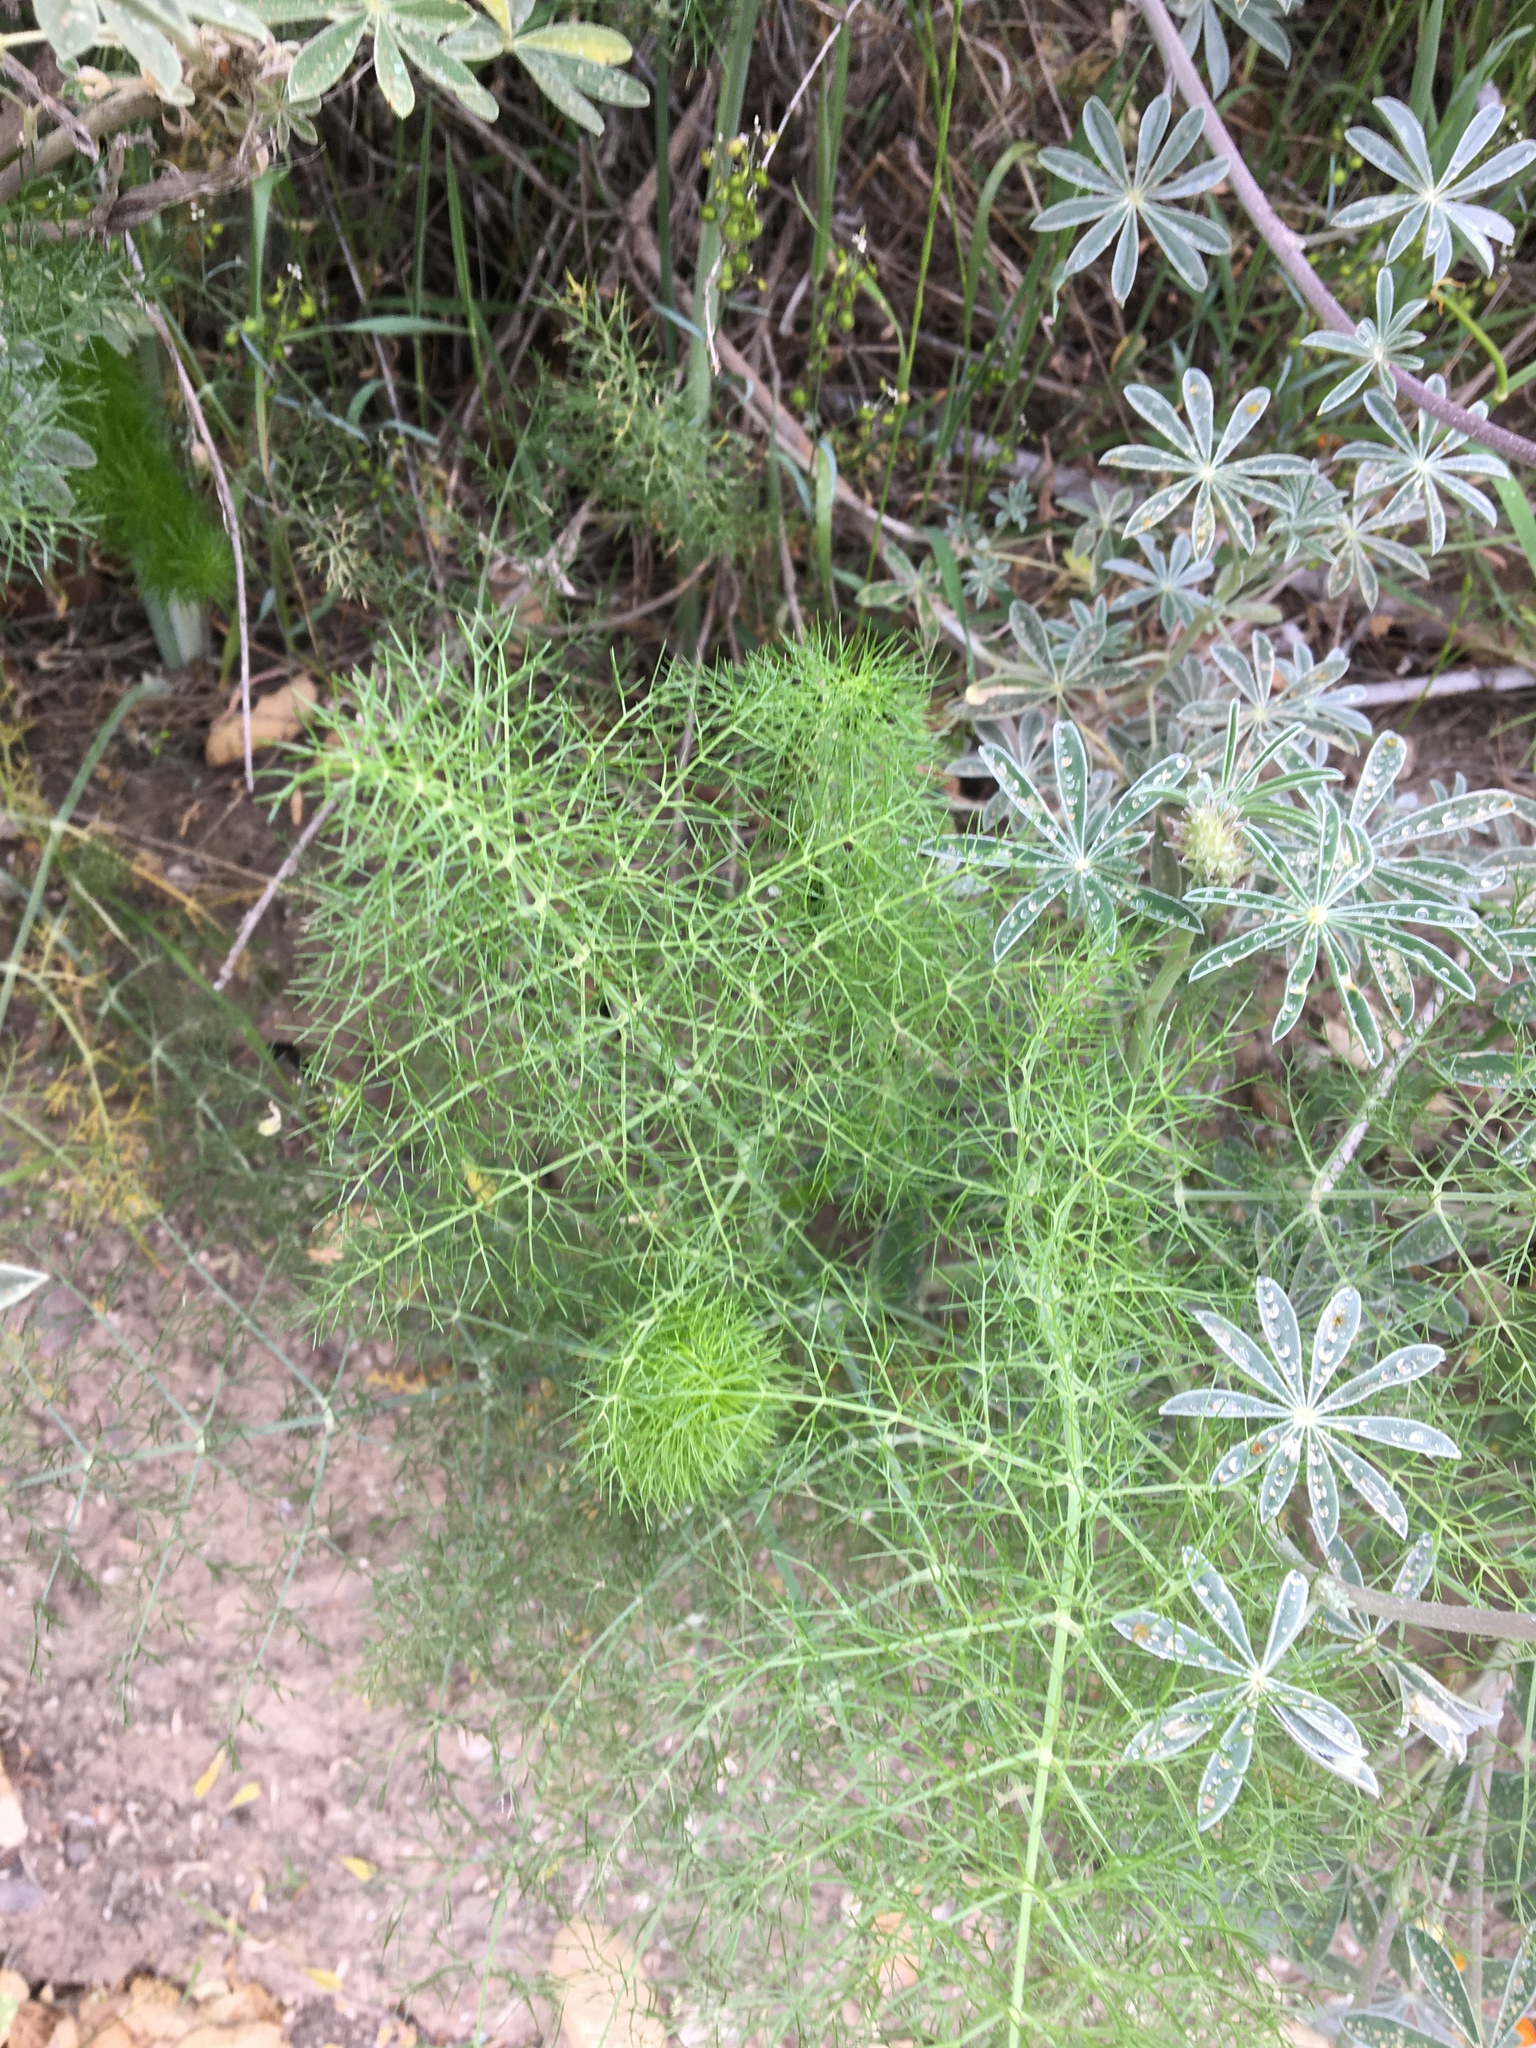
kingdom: Plantae
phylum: Tracheophyta
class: Magnoliopsida
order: Apiales
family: Apiaceae
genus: Foeniculum
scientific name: Foeniculum vulgare
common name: Fennel
